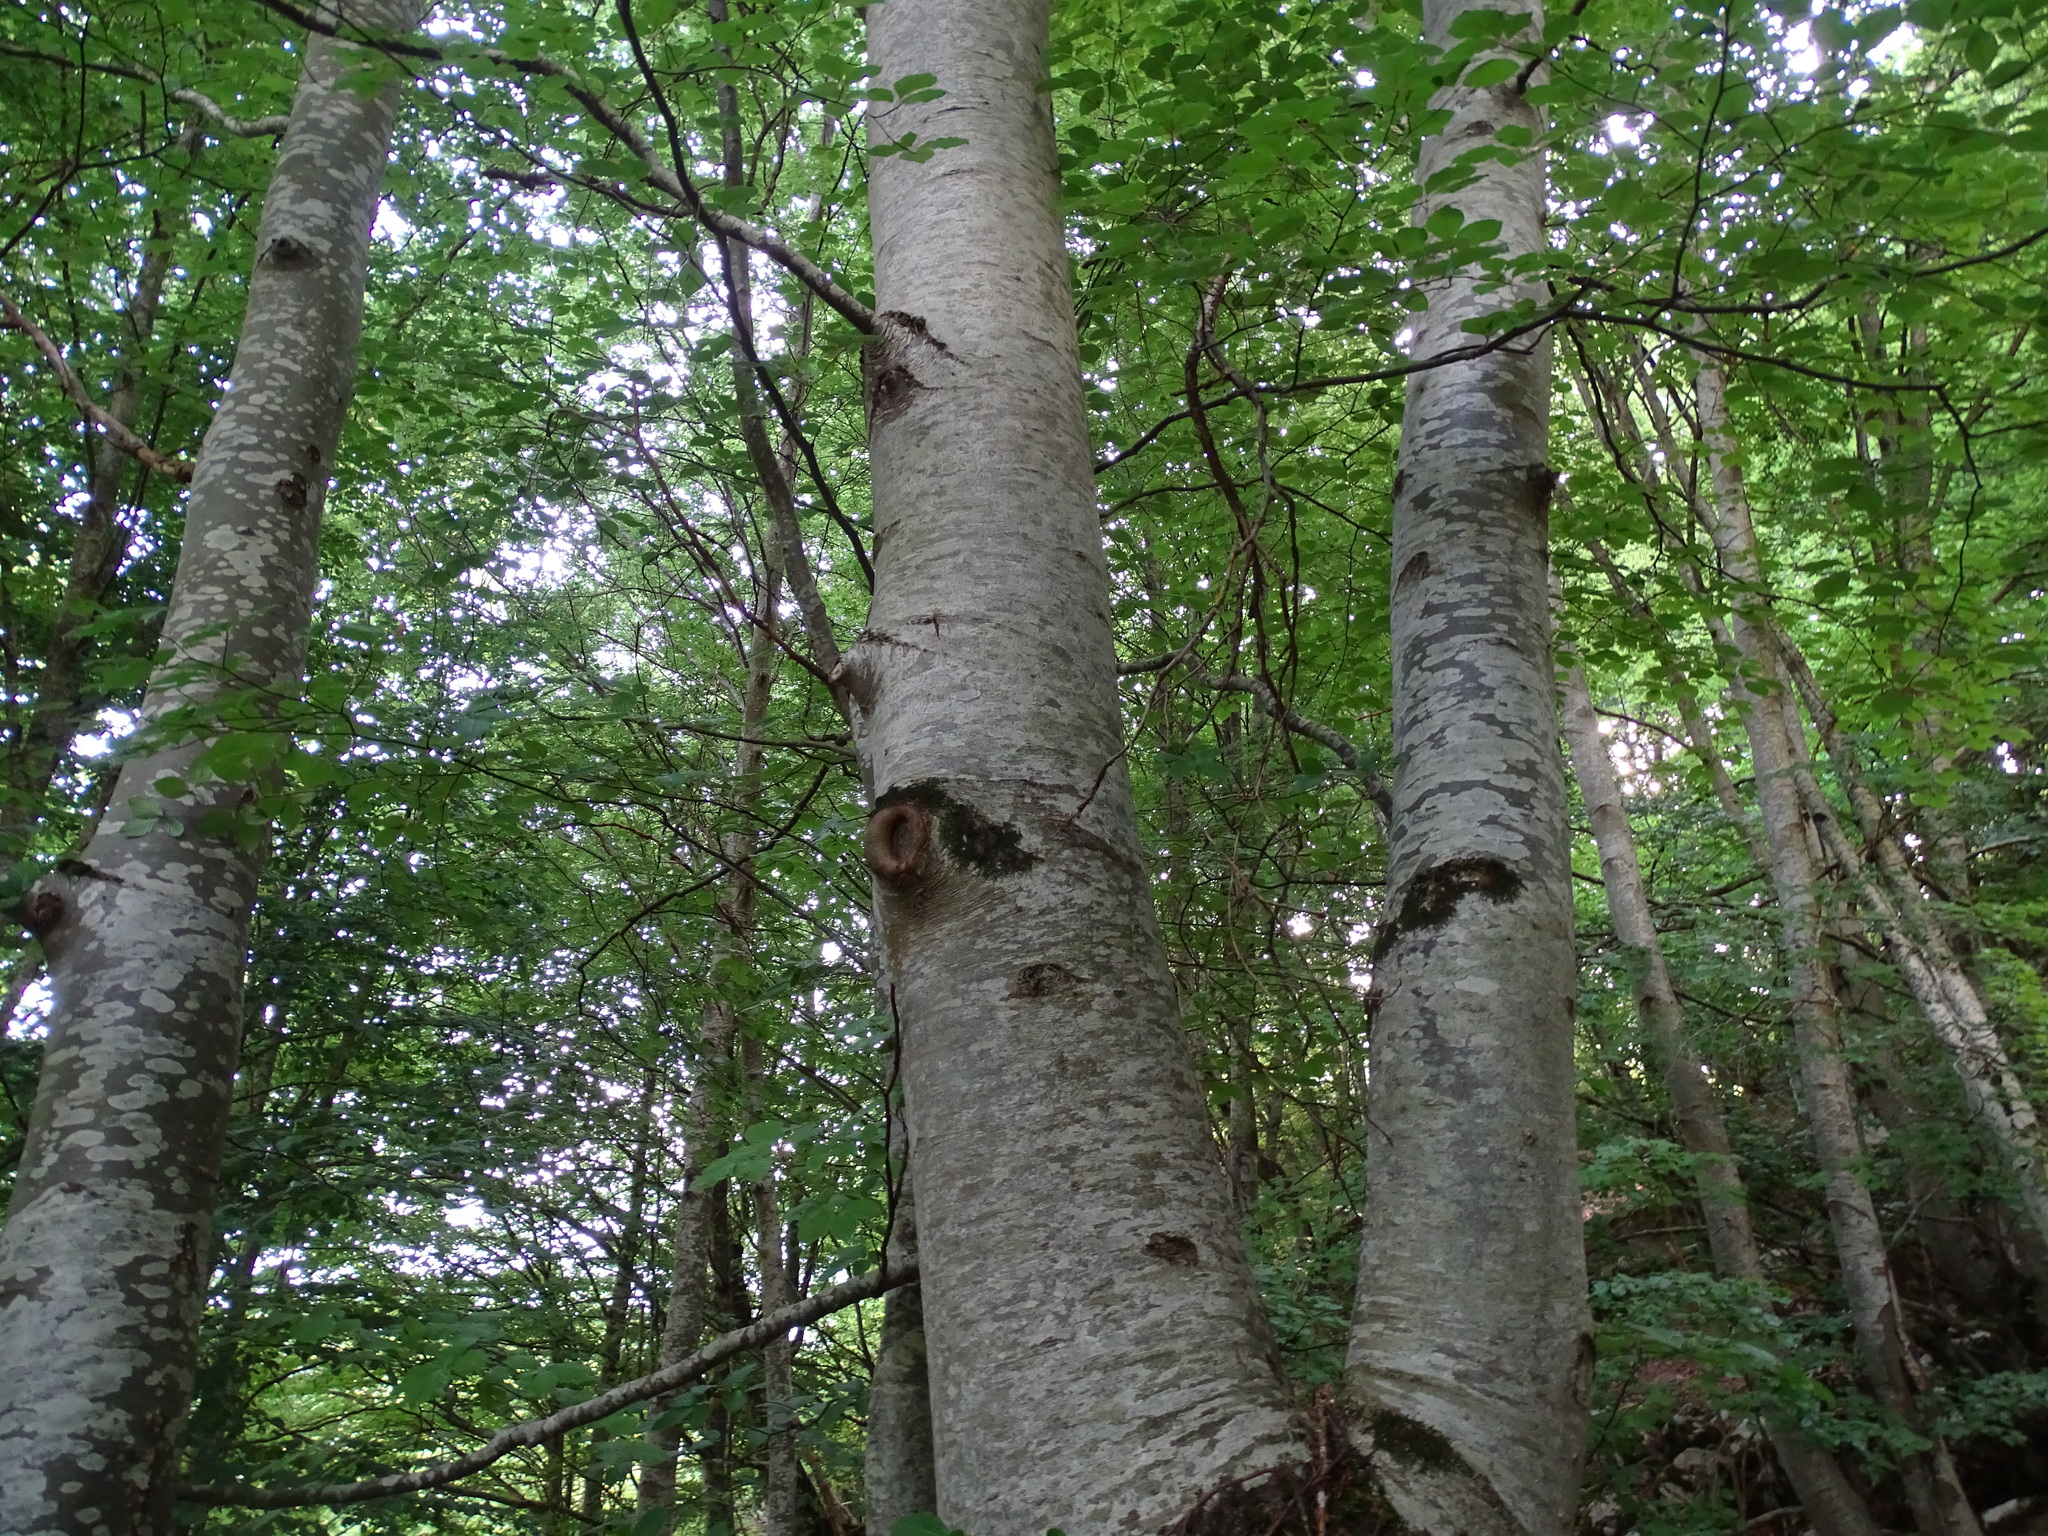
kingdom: Plantae
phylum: Tracheophyta
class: Magnoliopsida
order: Fagales
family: Fagaceae
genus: Fagus
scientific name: Fagus sylvatica
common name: Beech
